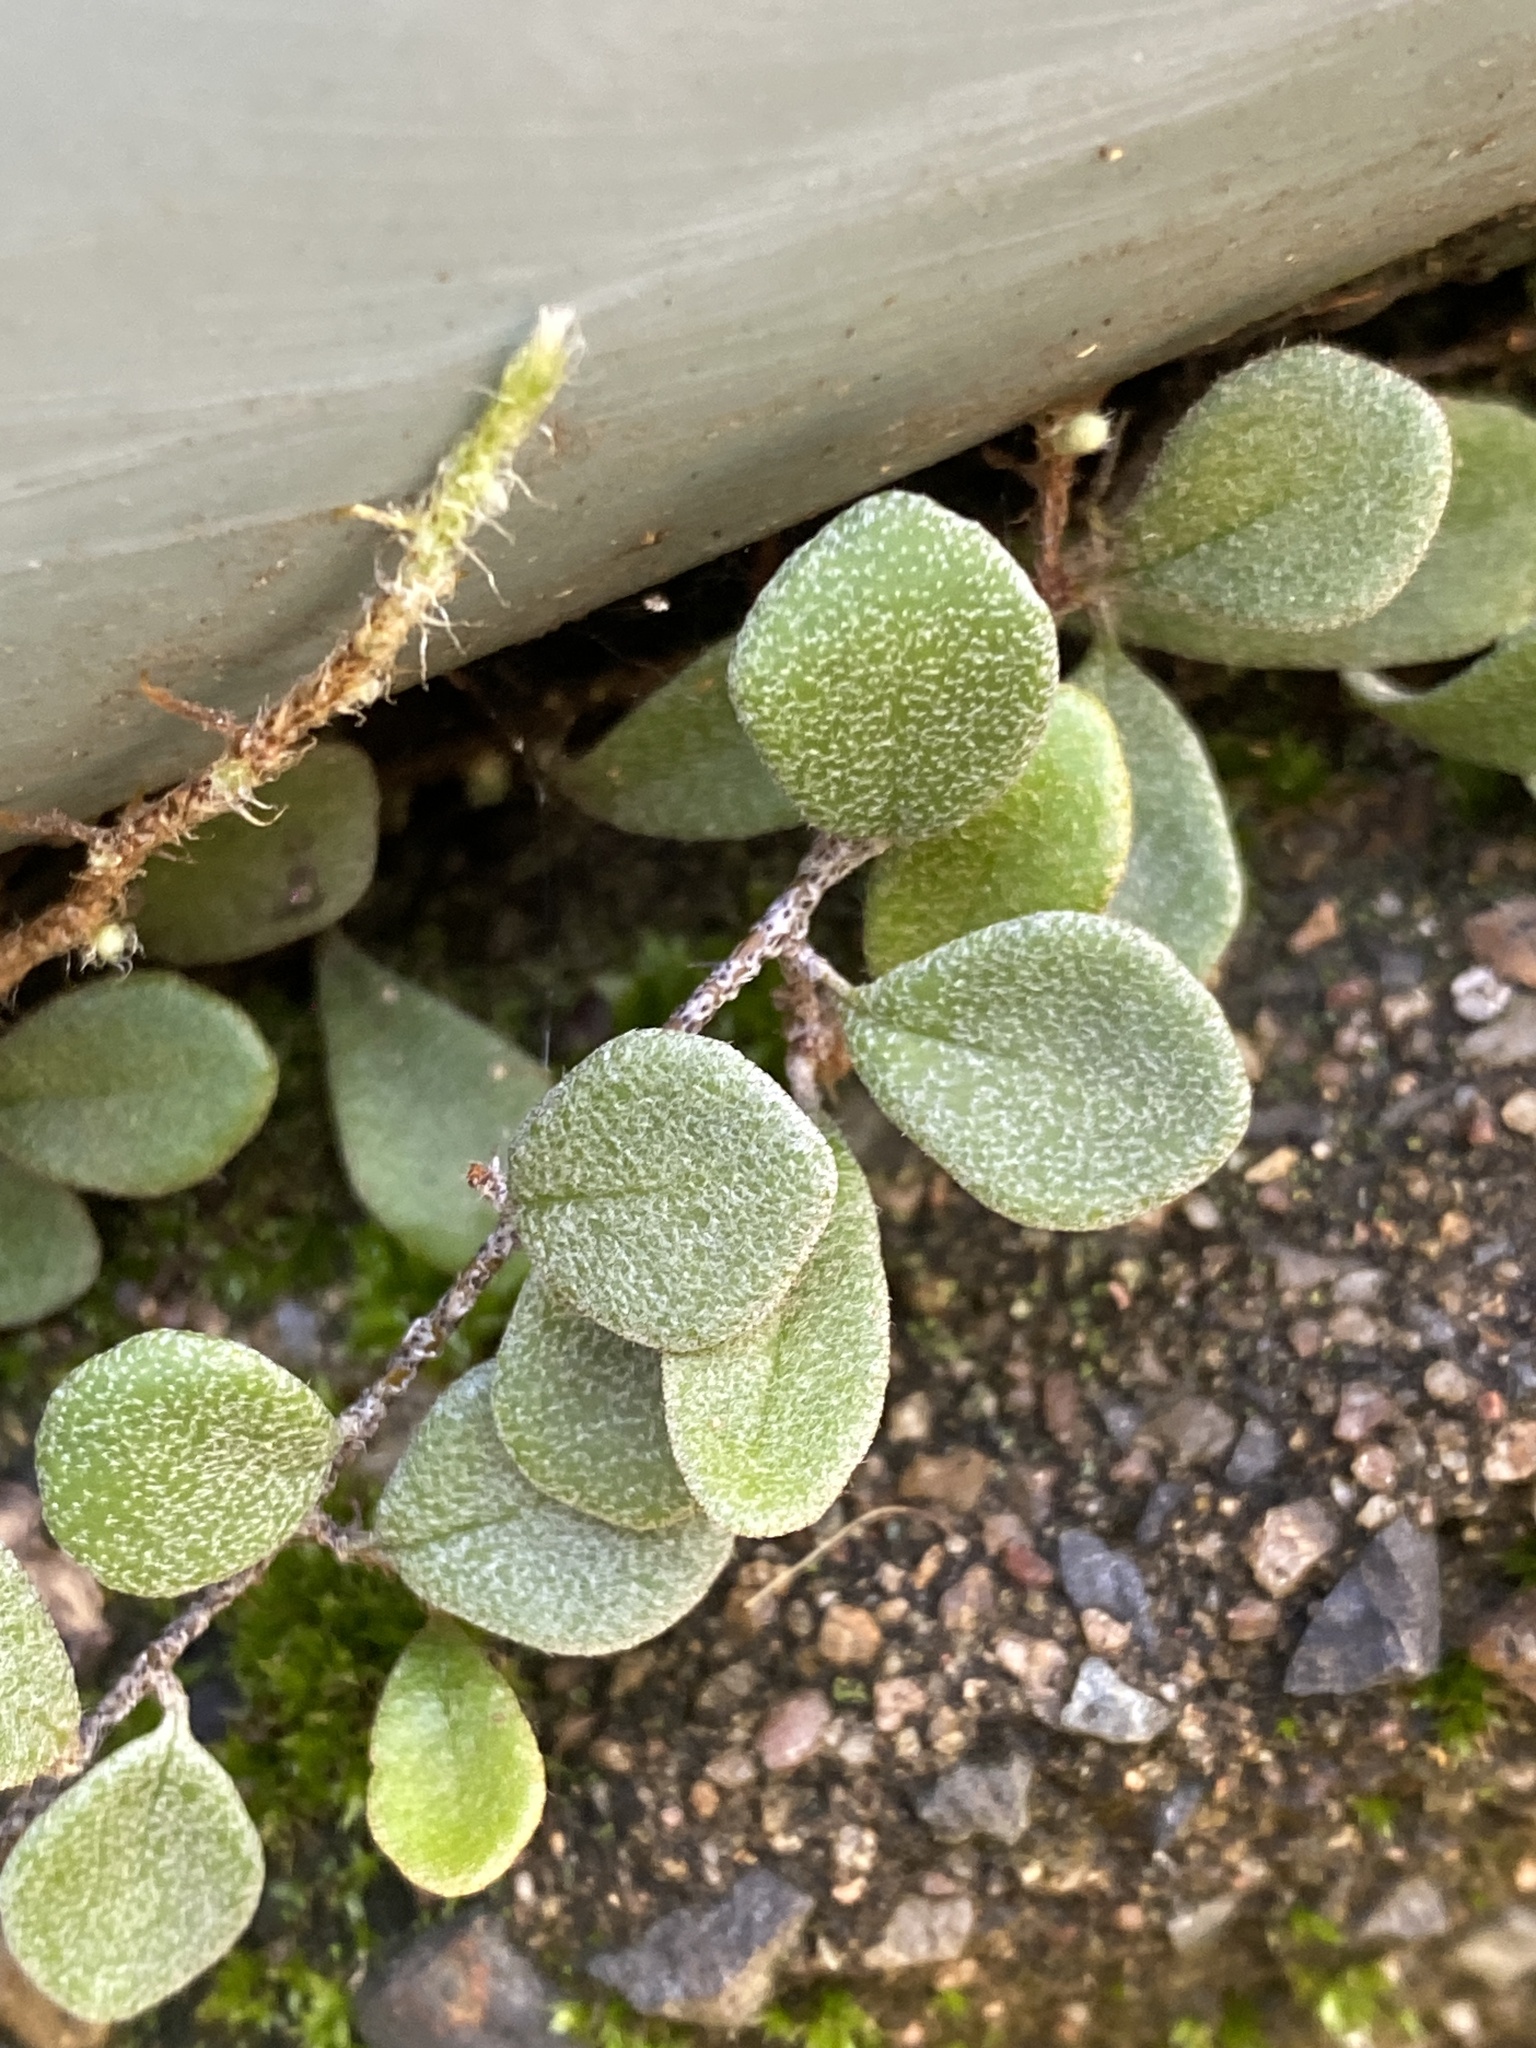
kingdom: Plantae
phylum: Tracheophyta
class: Polypodiopsida
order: Polypodiales
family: Polypodiaceae
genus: Pyrrosia
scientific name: Pyrrosia rupestris
